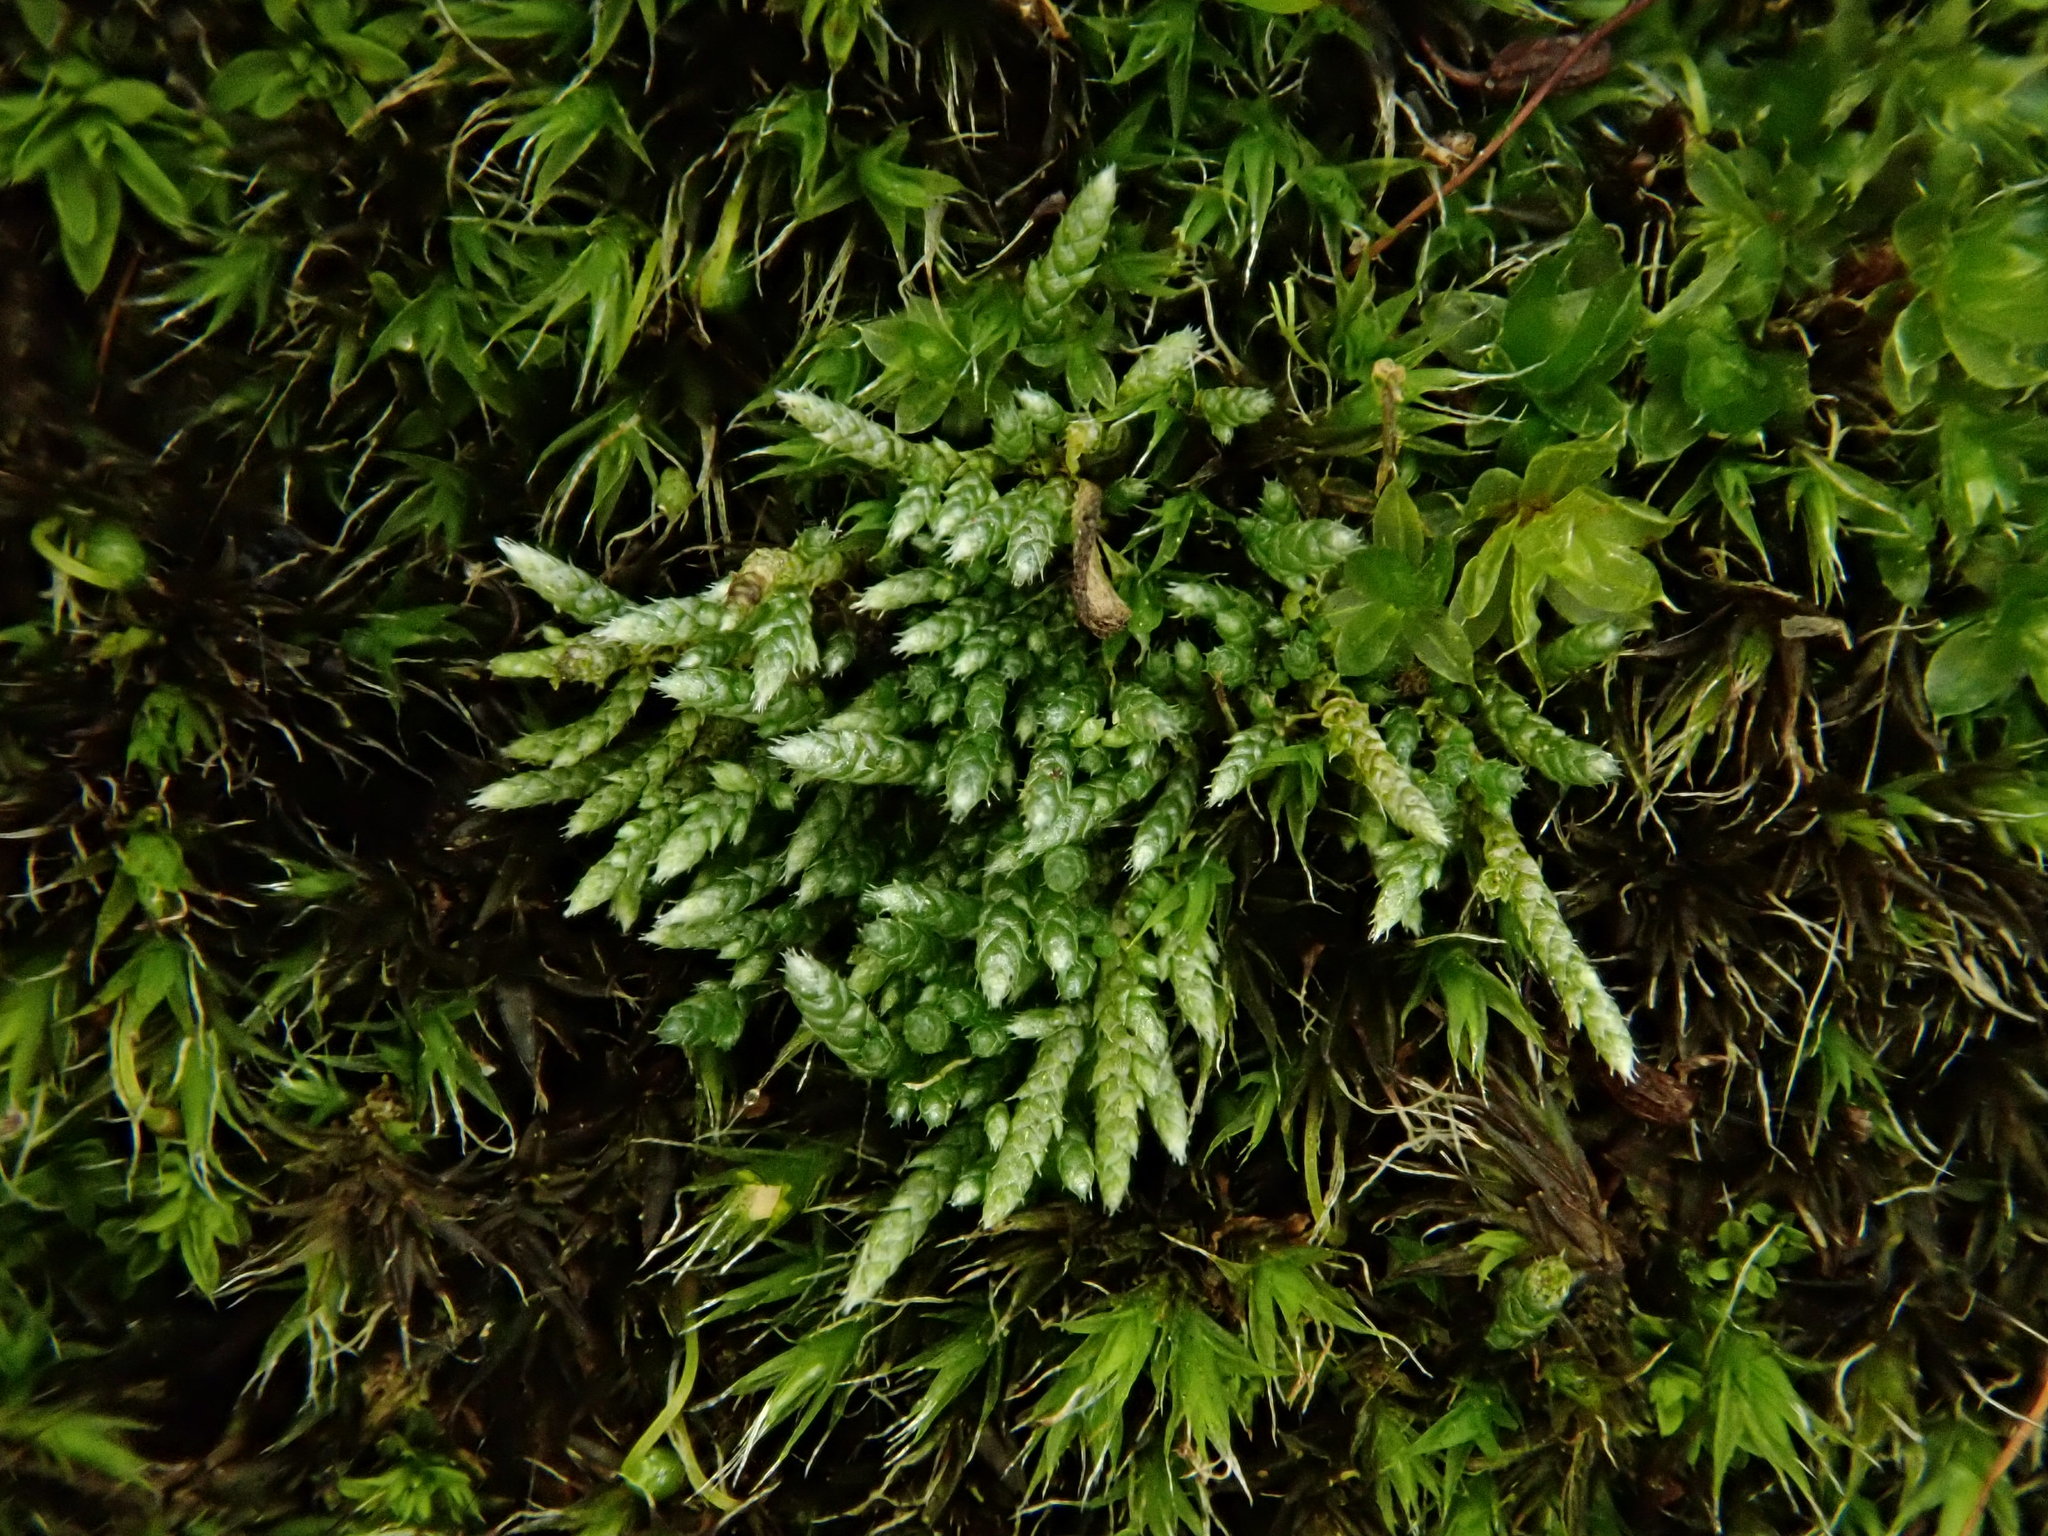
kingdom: Plantae
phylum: Bryophyta
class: Bryopsida
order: Bryales
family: Bryaceae
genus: Bryum
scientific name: Bryum argenteum
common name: Silver-moss
